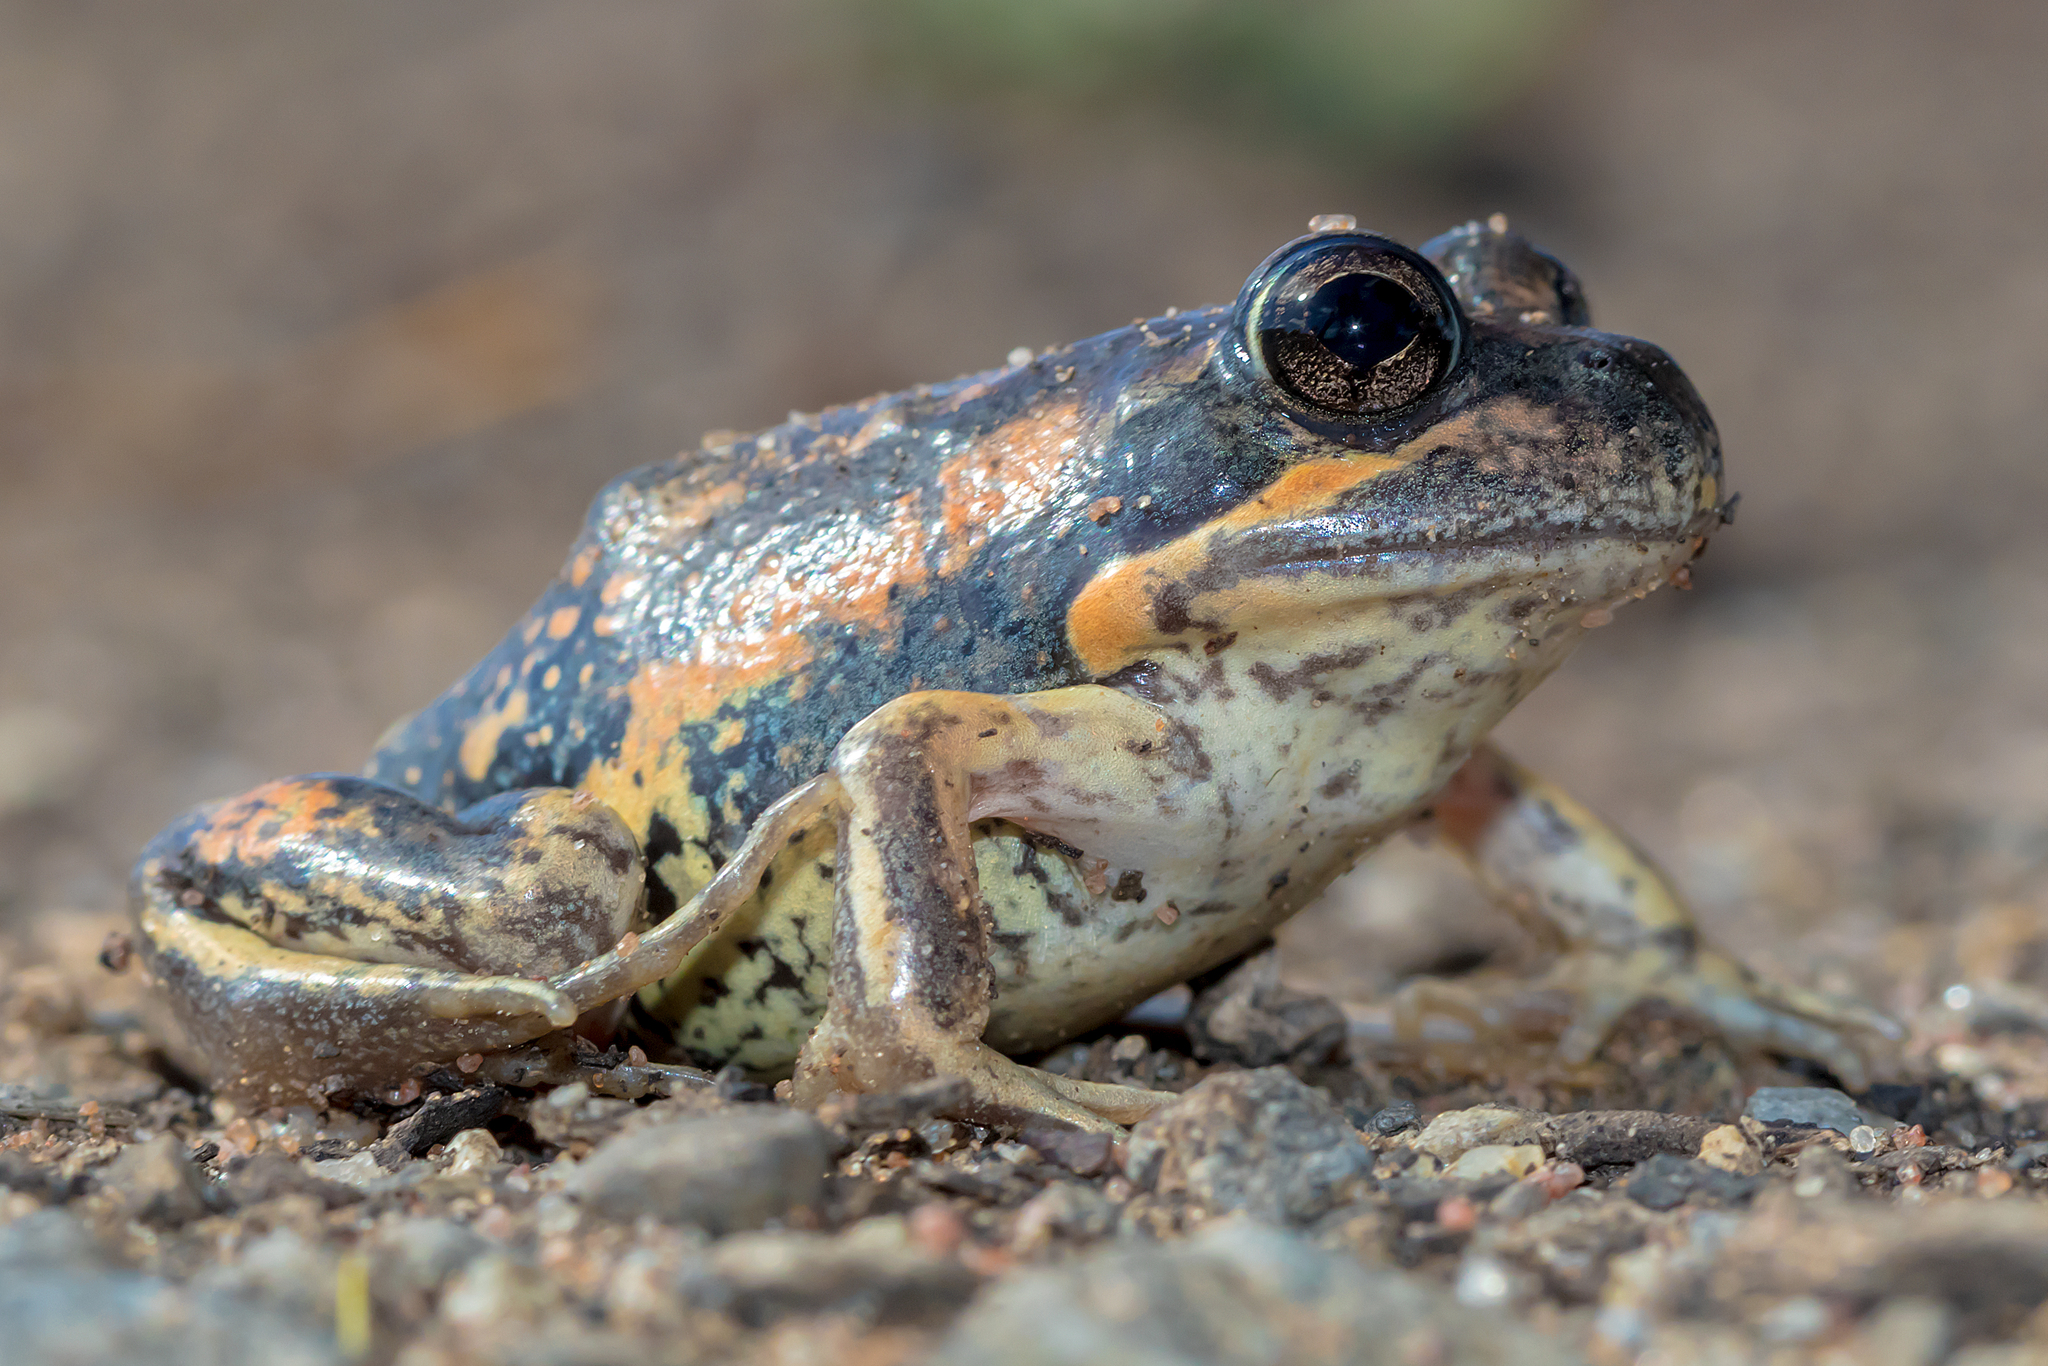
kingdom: Animalia
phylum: Chordata
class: Amphibia
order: Anura
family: Limnodynastidae
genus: Limnodynastes
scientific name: Limnodynastes dumerilii
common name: Banjo frog
